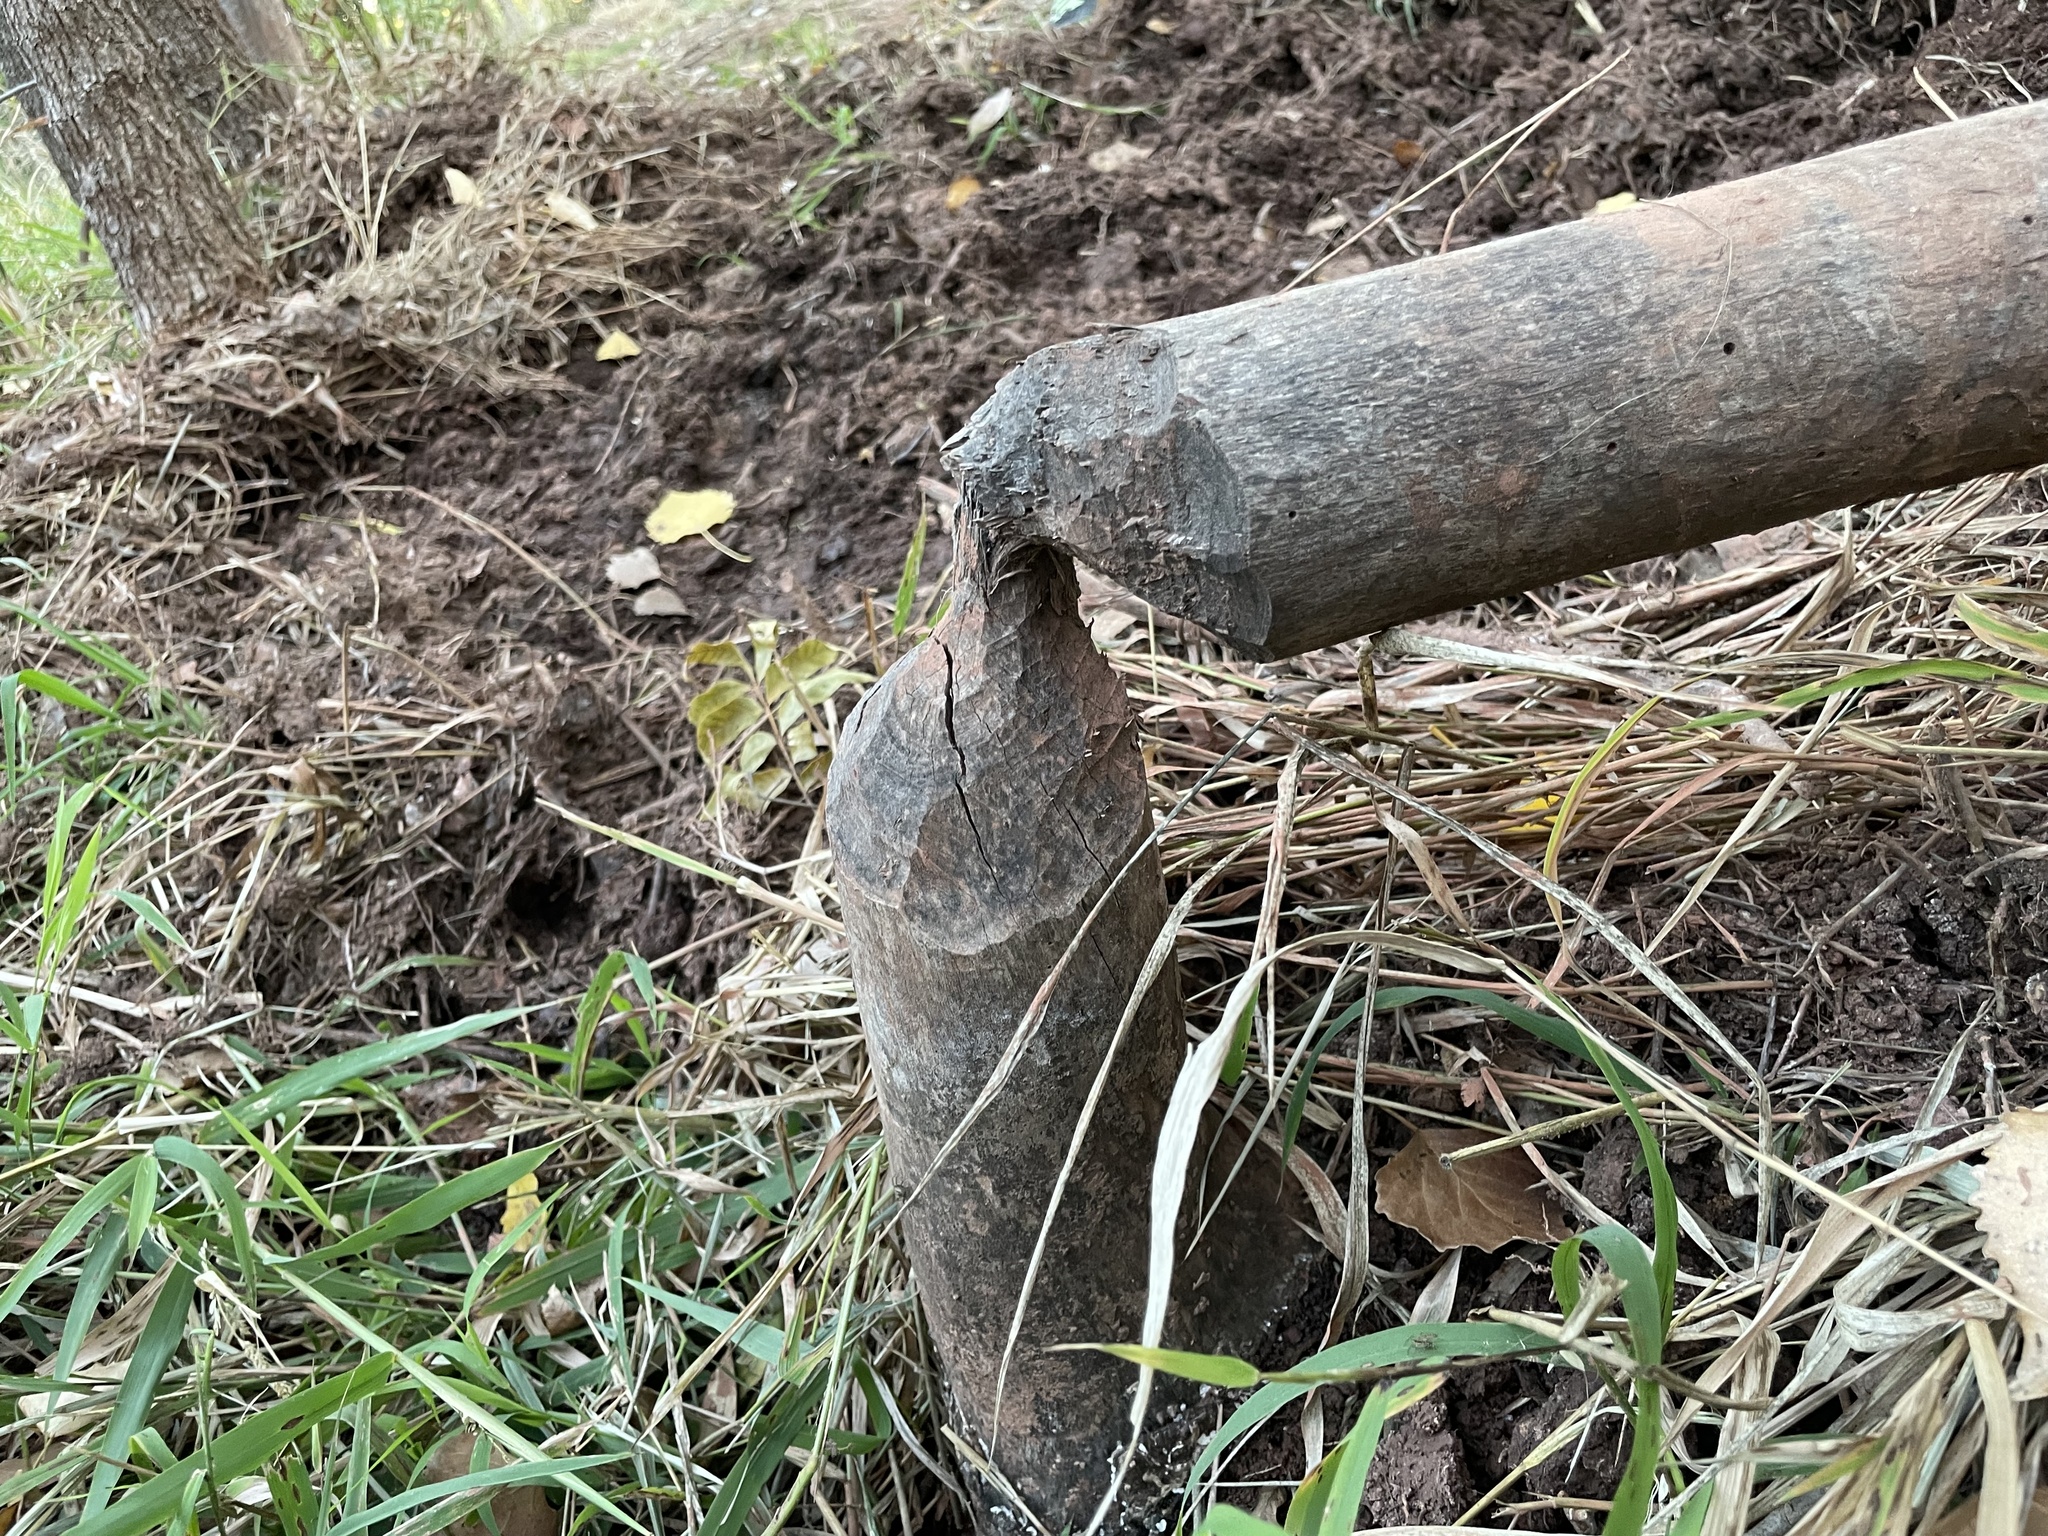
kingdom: Animalia
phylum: Chordata
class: Mammalia
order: Rodentia
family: Castoridae
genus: Castor
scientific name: Castor canadensis
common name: American beaver
